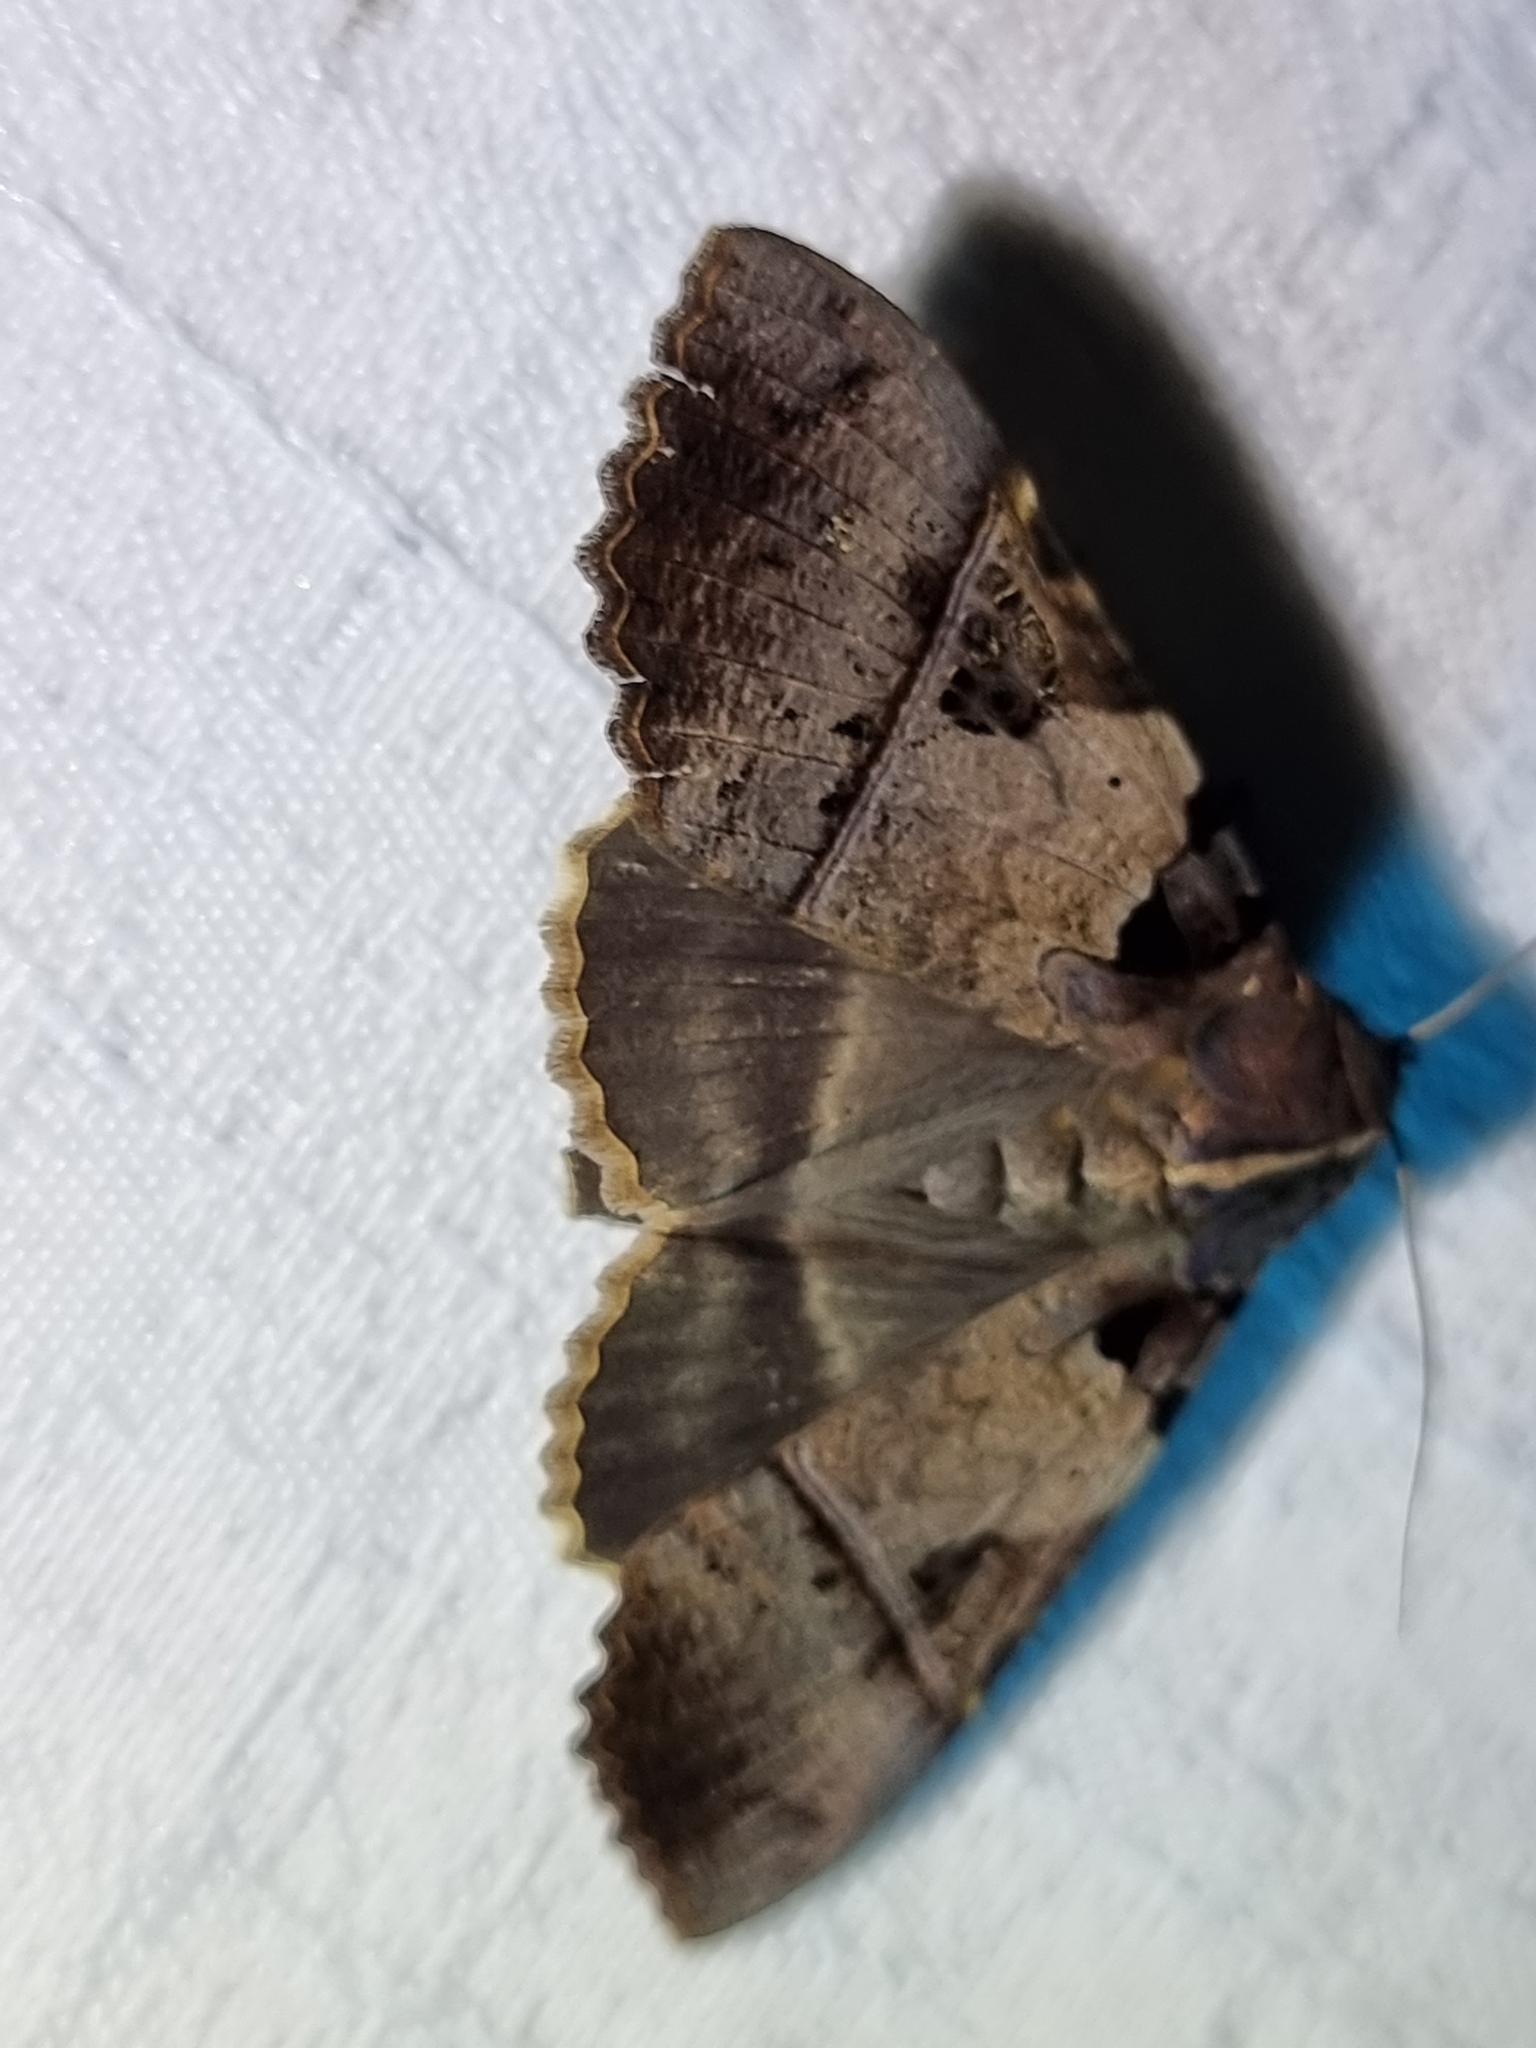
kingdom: Animalia
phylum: Arthropoda
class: Insecta
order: Lepidoptera
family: Erebidae
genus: Serrodes
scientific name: Serrodes campana
